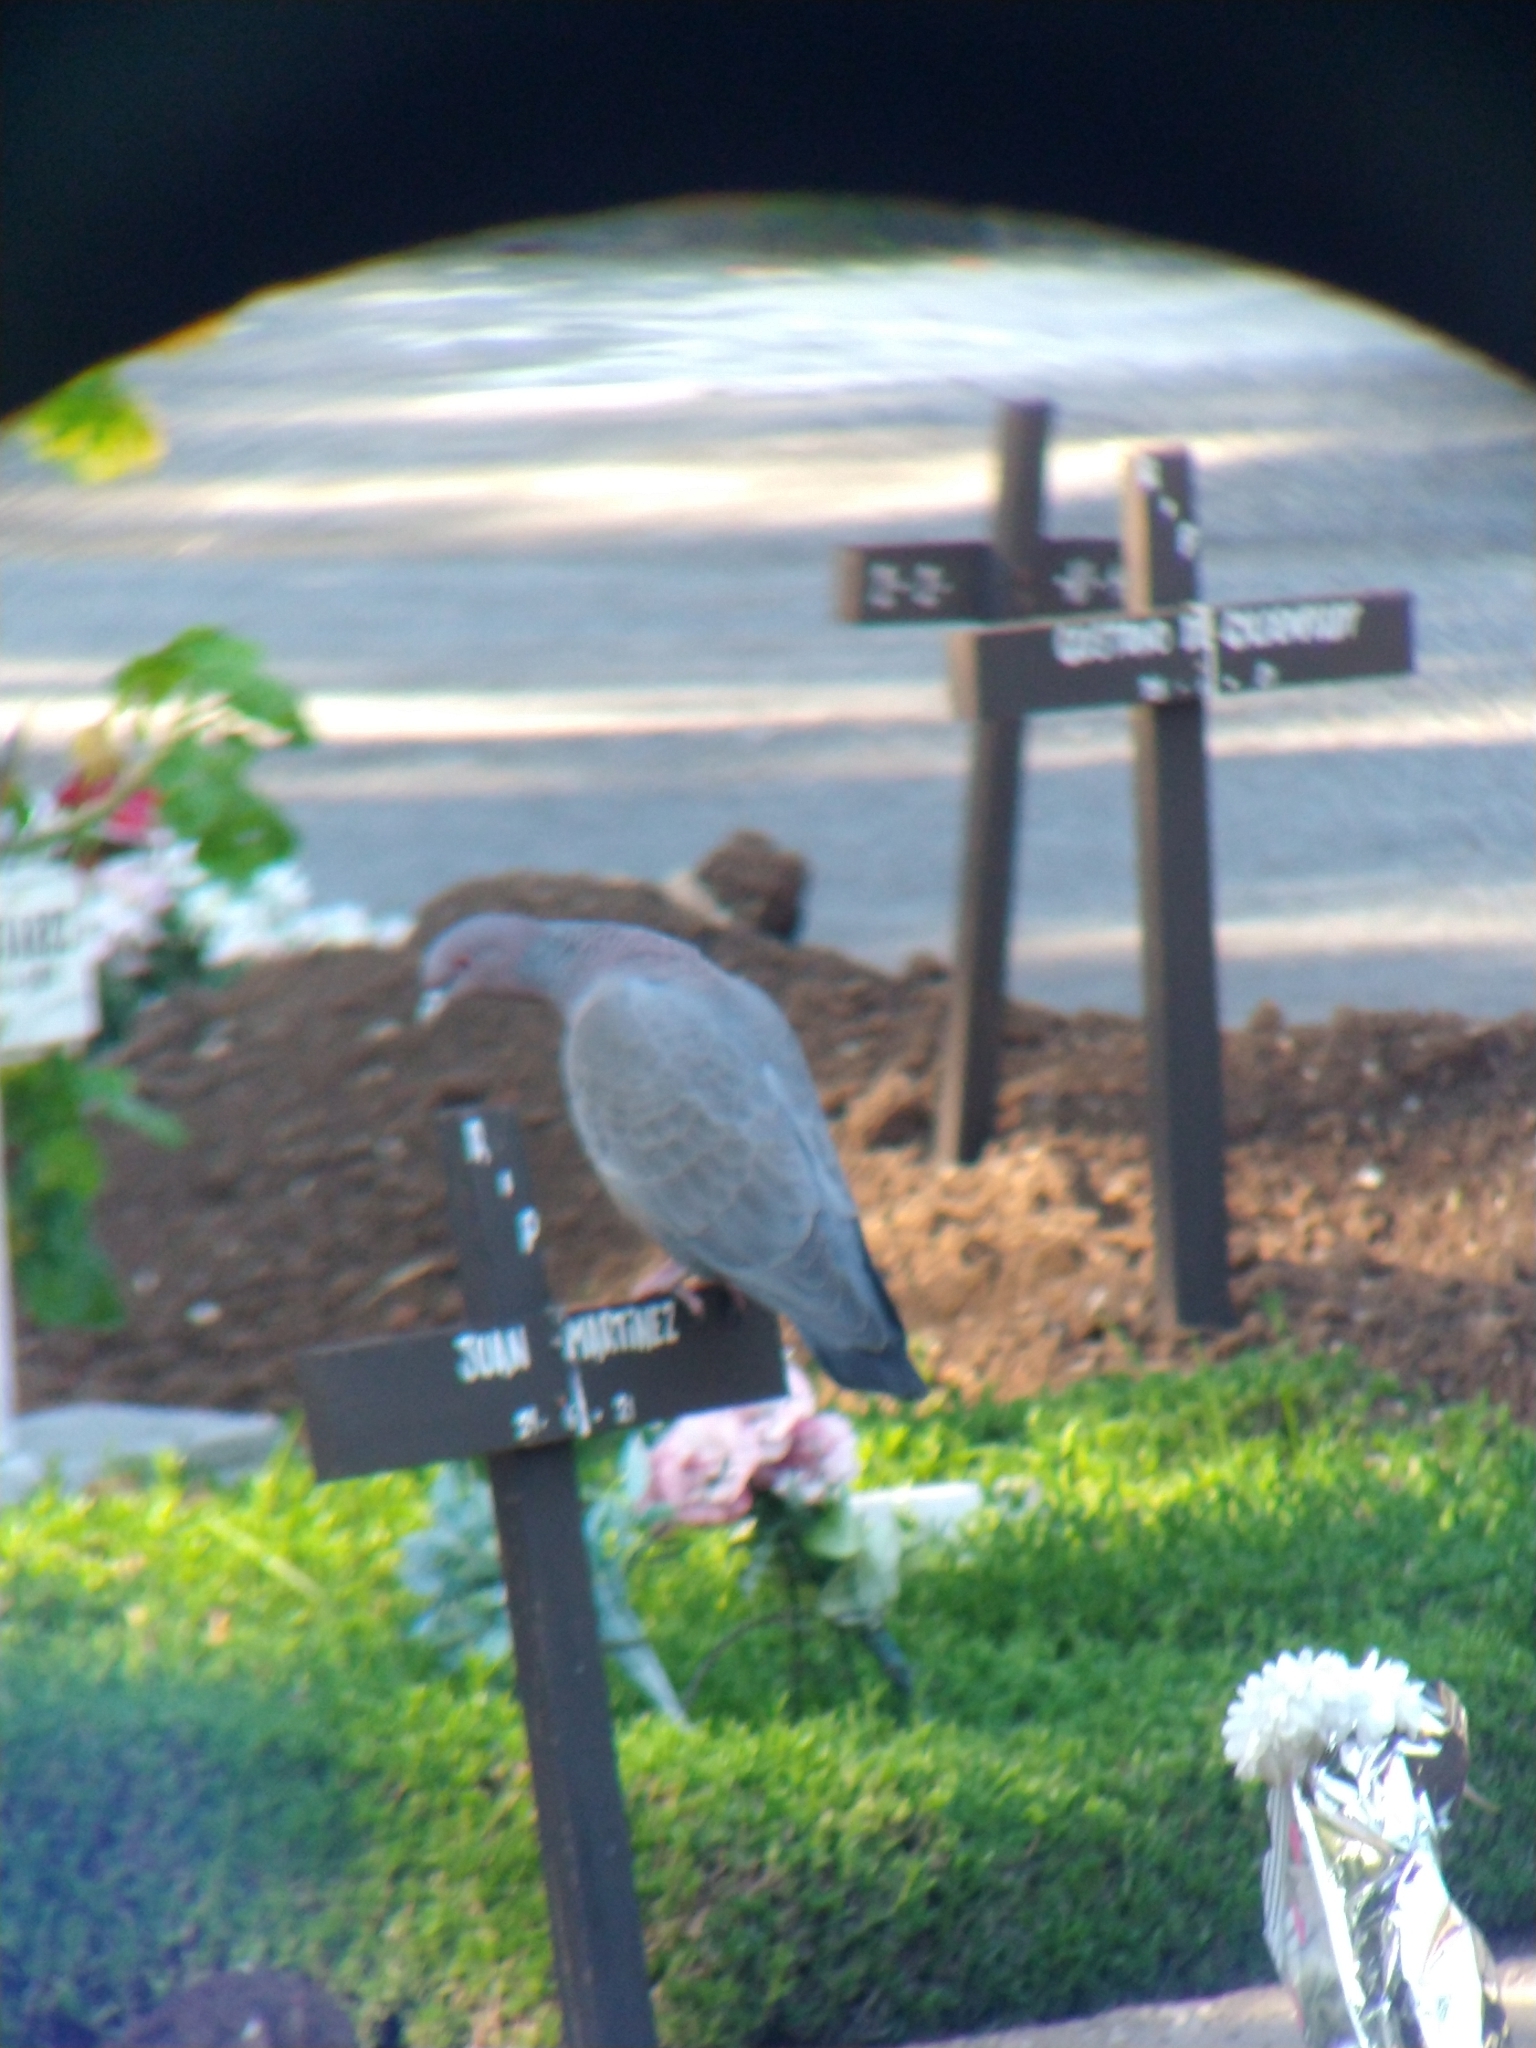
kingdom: Animalia
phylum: Chordata
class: Aves
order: Columbiformes
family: Columbidae
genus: Patagioenas
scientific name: Patagioenas picazuro
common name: Picazuro pigeon
